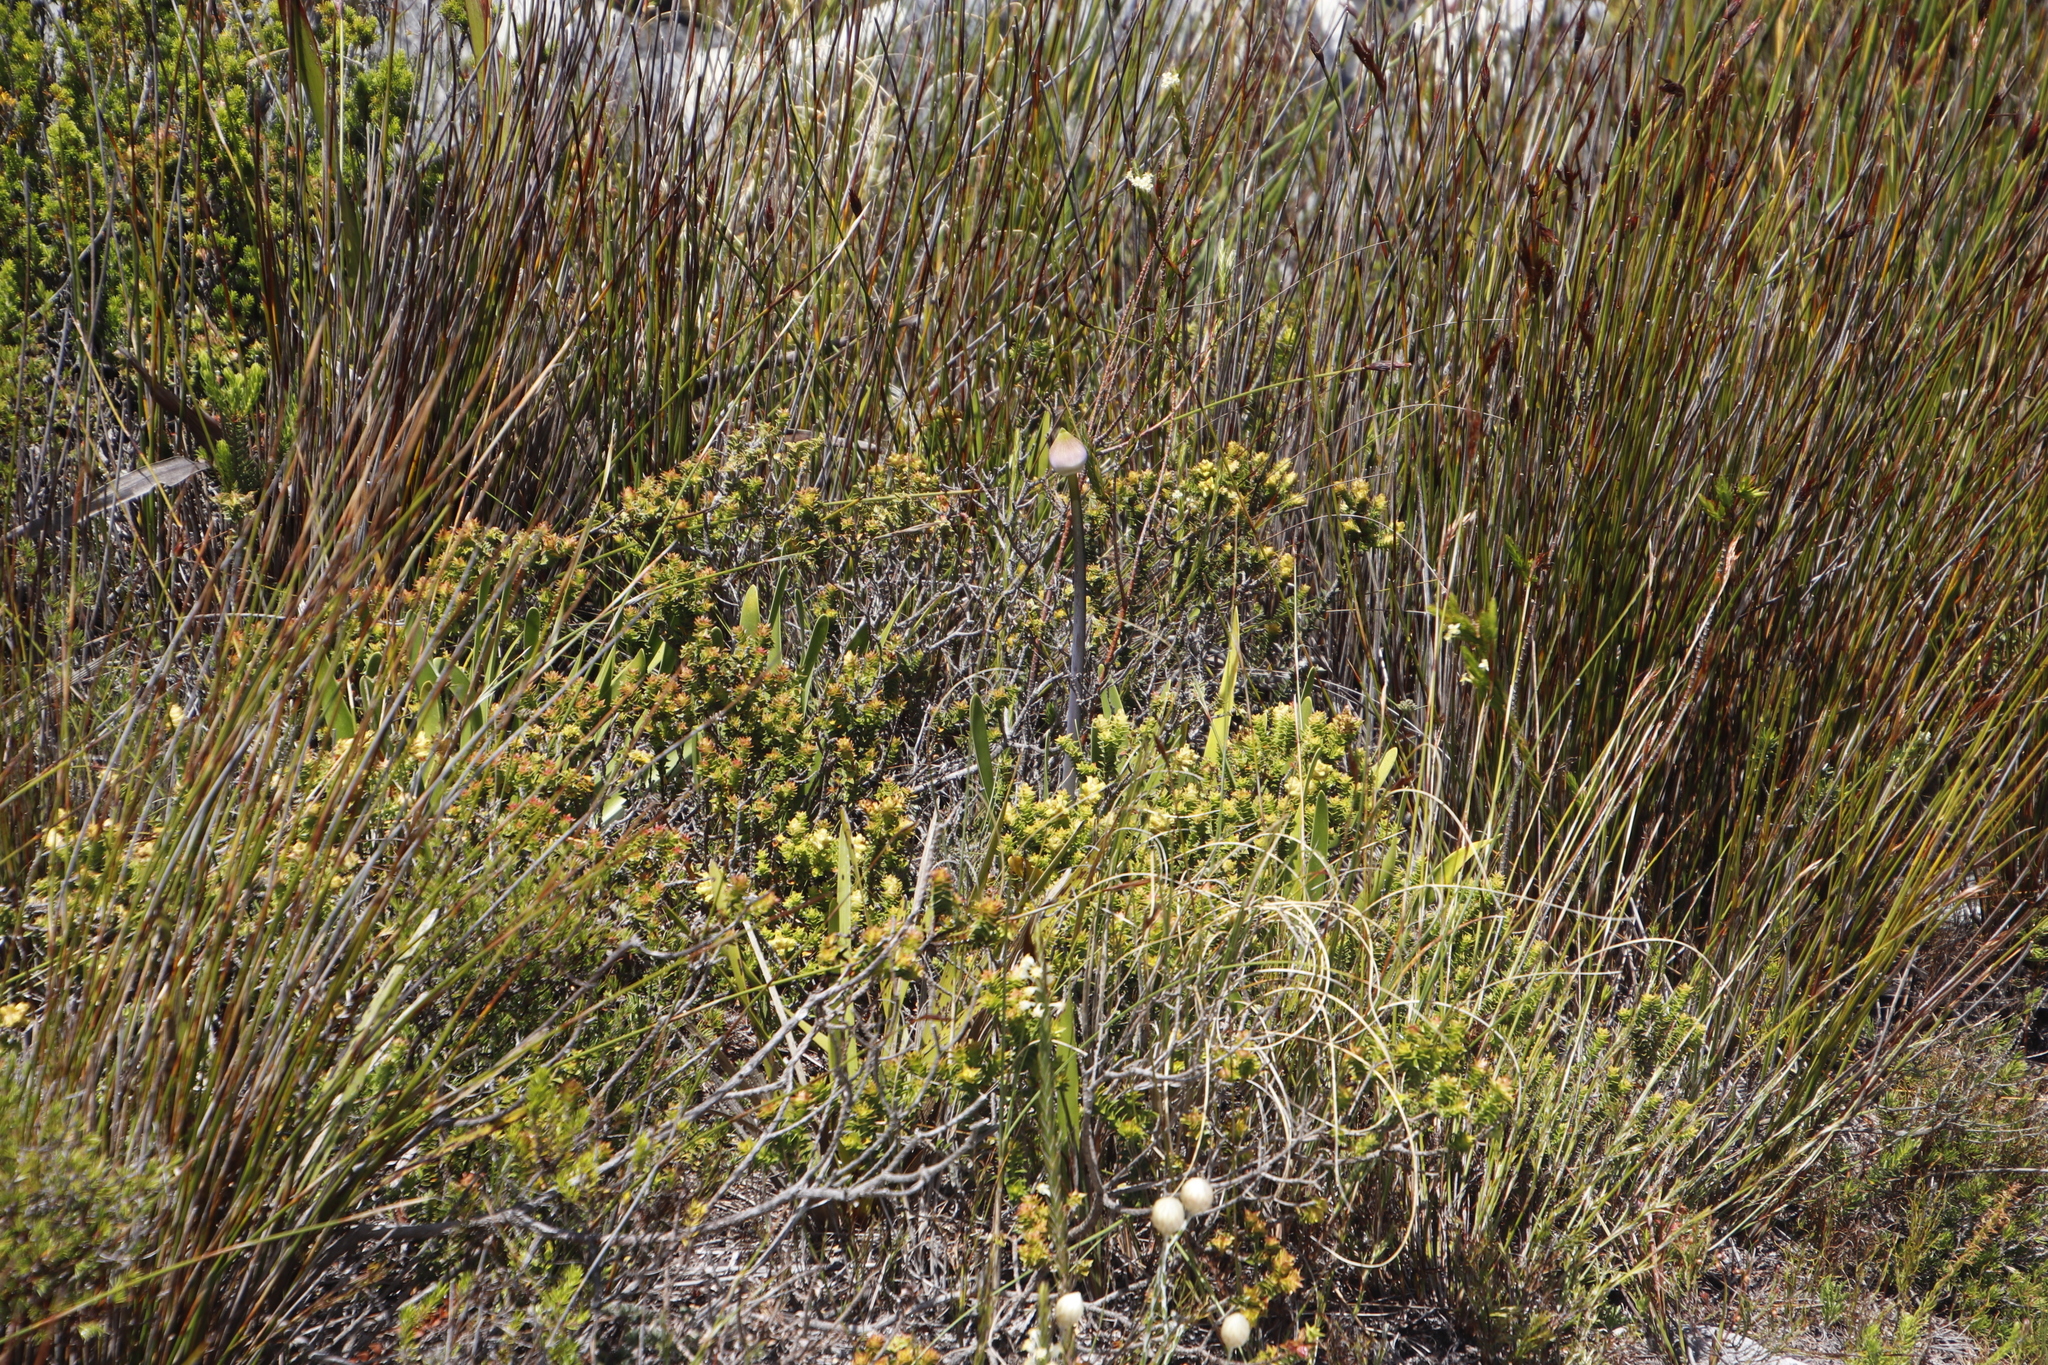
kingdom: Plantae
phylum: Tracheophyta
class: Magnoliopsida
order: Myrtales
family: Penaeaceae
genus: Penaea
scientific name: Penaea mucronata
